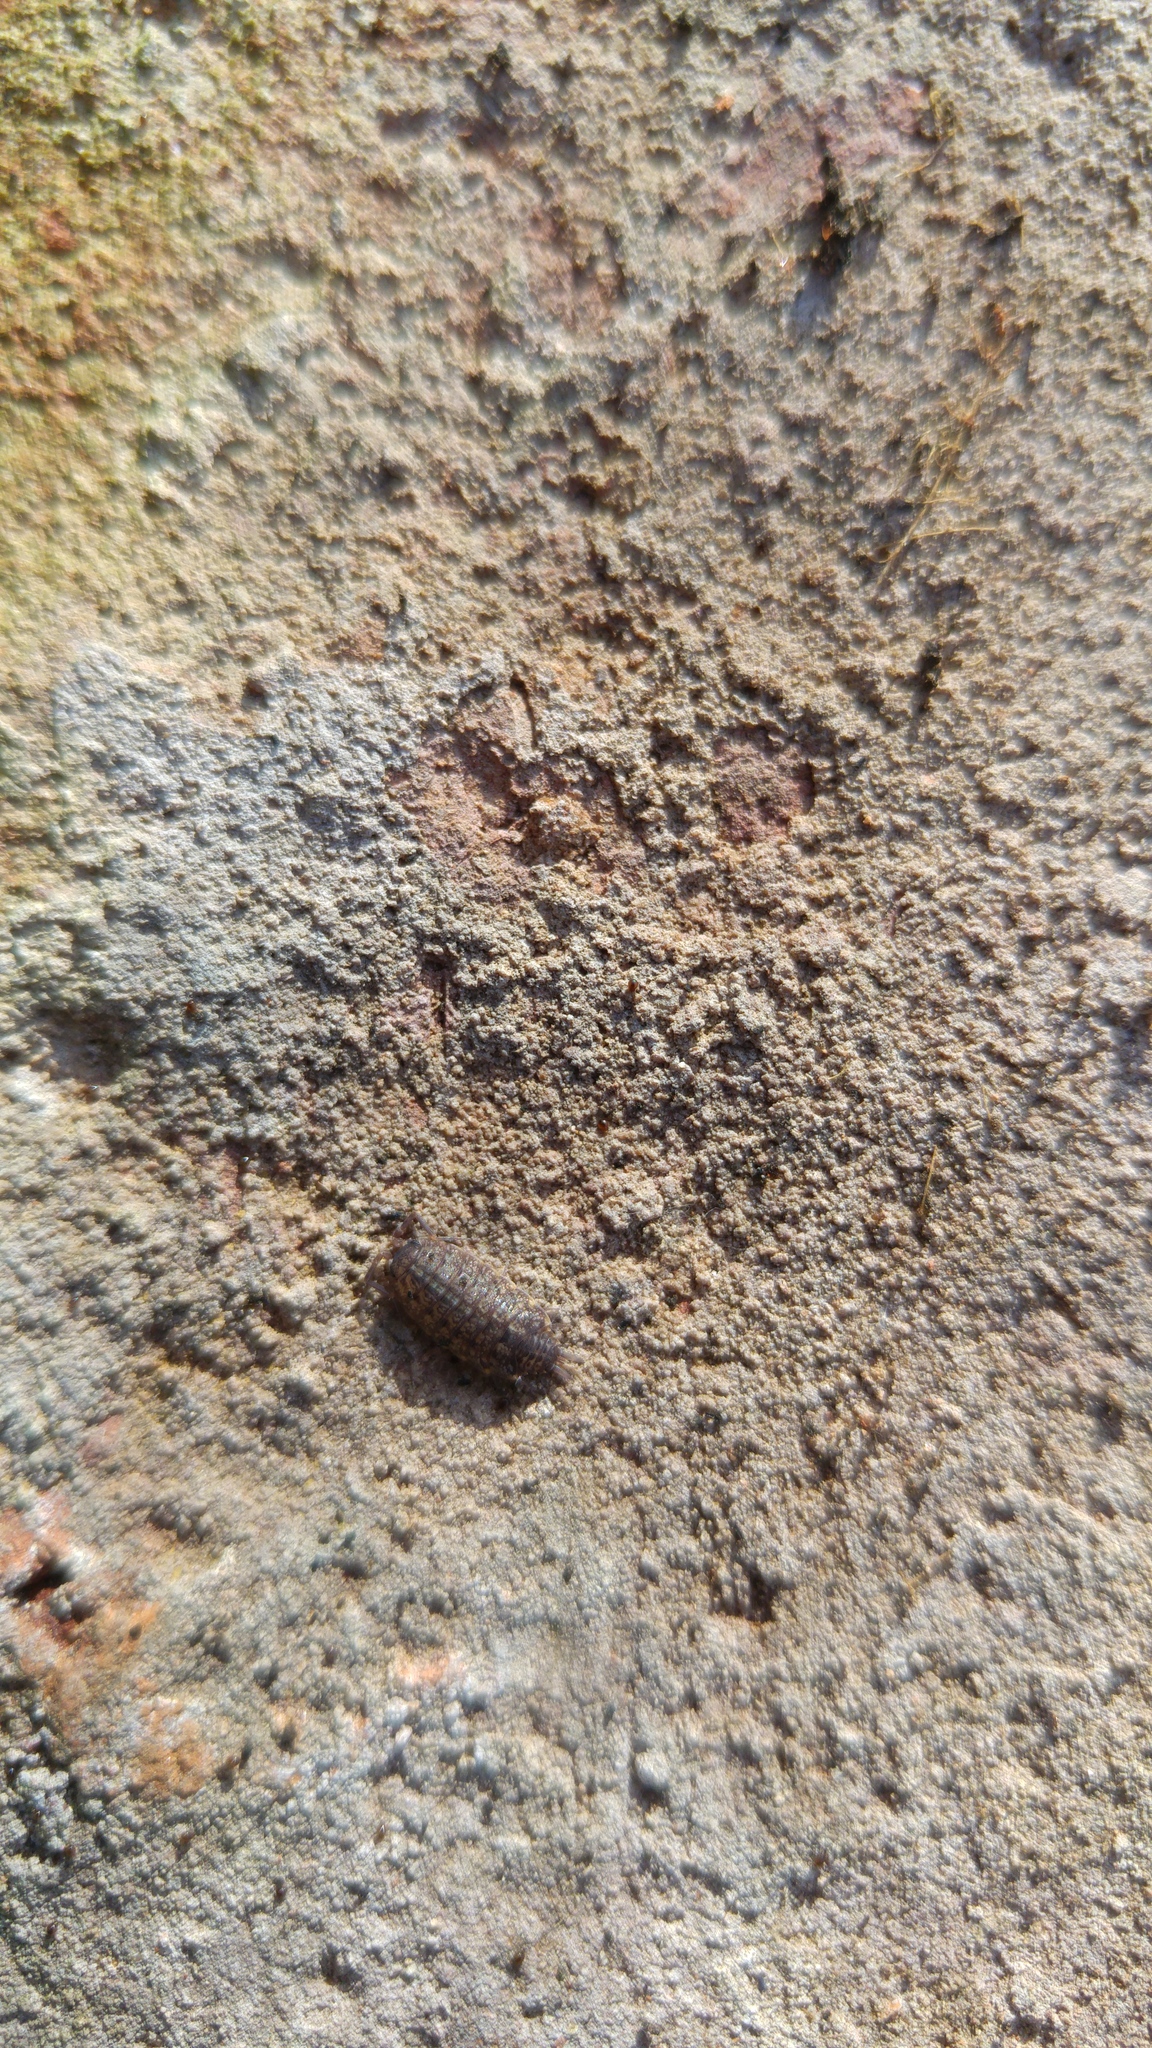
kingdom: Animalia
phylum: Arthropoda
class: Malacostraca
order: Isopoda
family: Agnaridae
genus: Orthometopon
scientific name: Orthometopon dalmatinum
